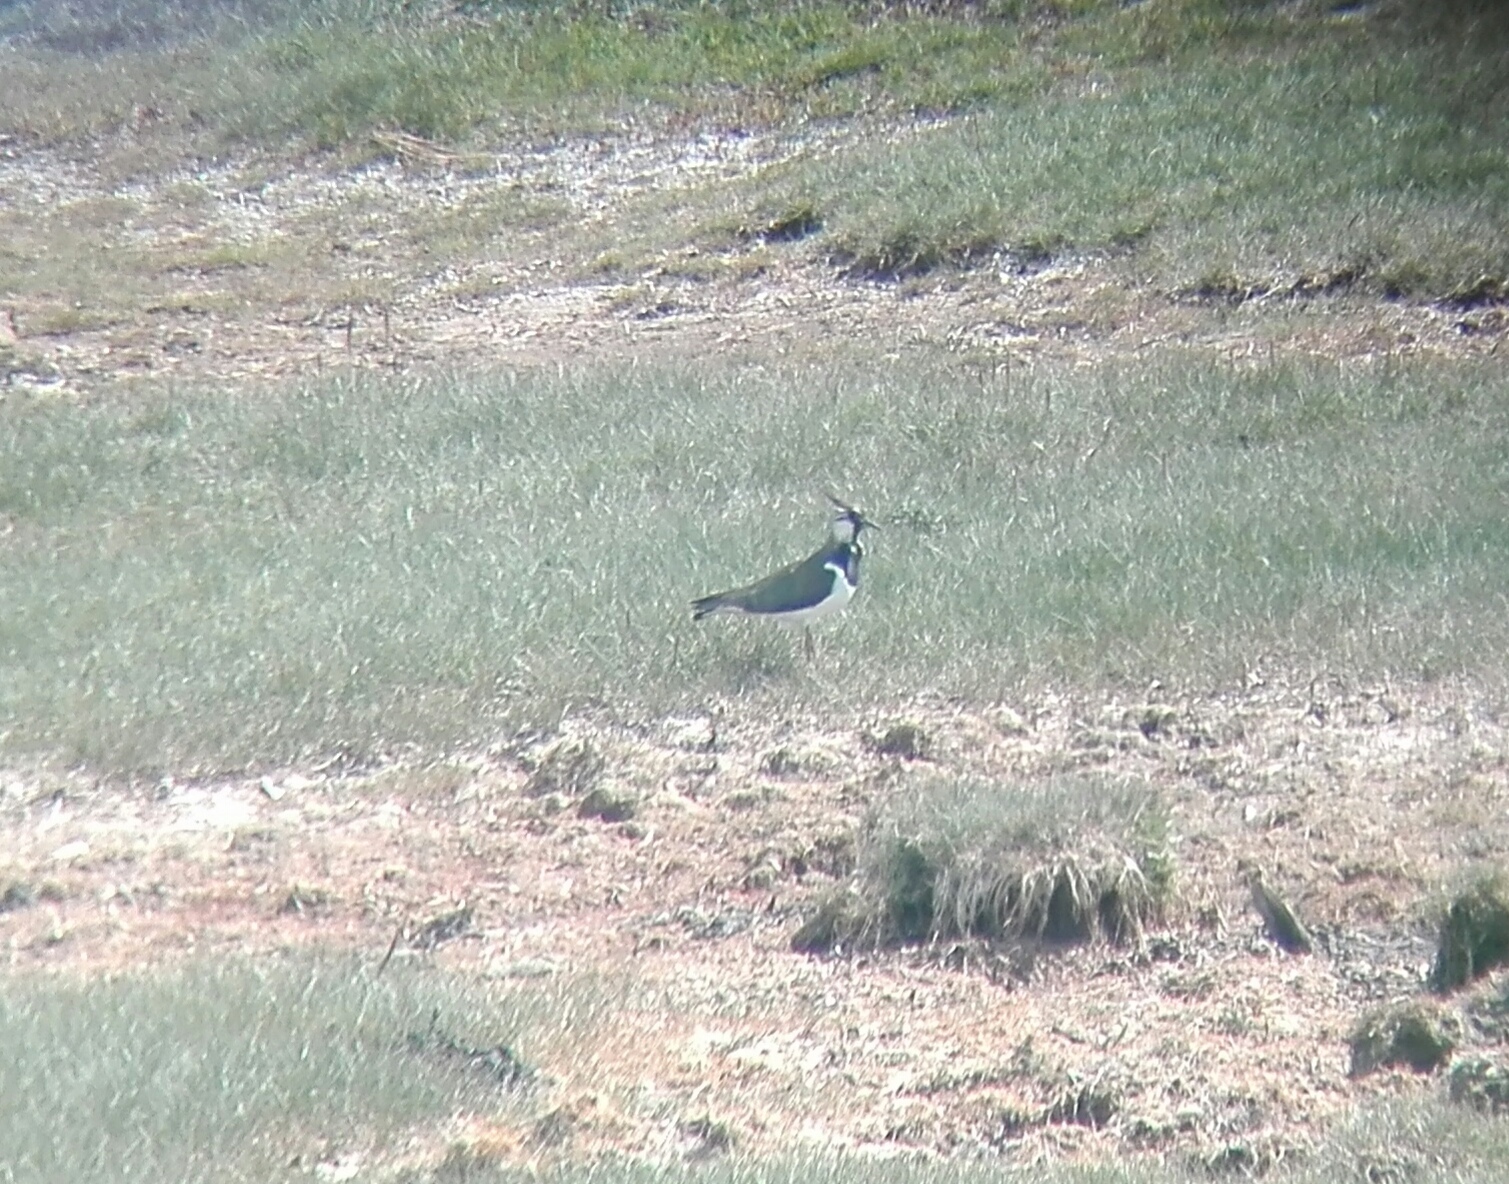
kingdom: Animalia
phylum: Chordata
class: Aves
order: Charadriiformes
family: Charadriidae
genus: Vanellus
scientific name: Vanellus vanellus
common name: Northern lapwing
